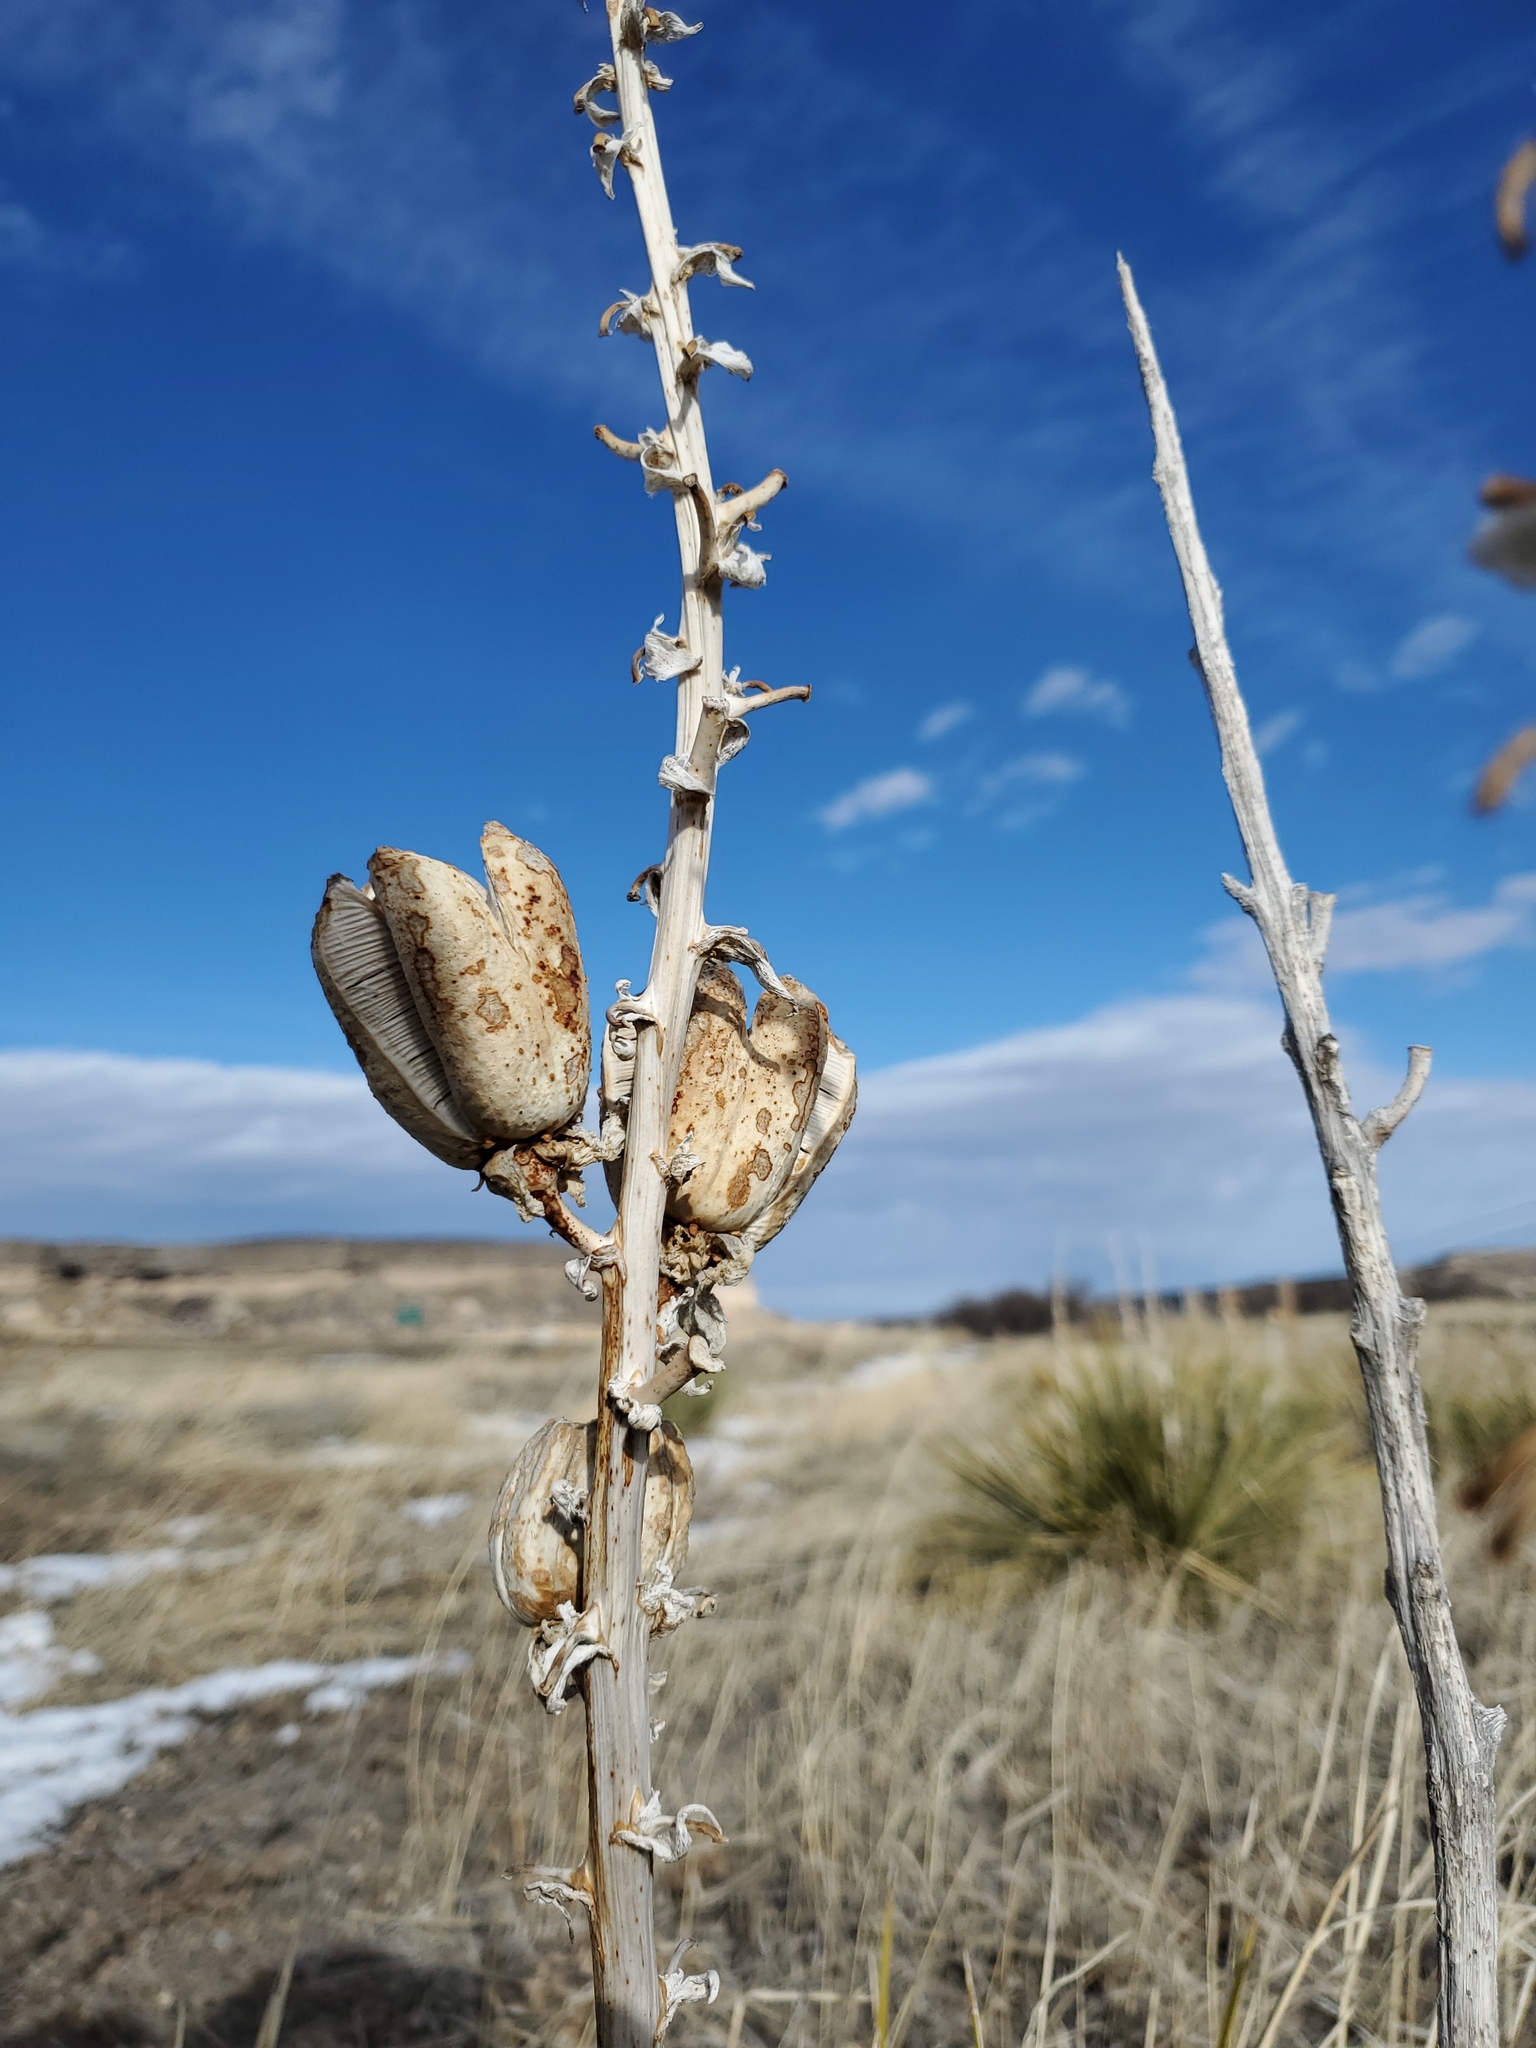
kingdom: Plantae
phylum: Tracheophyta
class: Liliopsida
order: Asparagales
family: Asparagaceae
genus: Yucca
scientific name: Yucca glauca
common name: Great plains yucca
